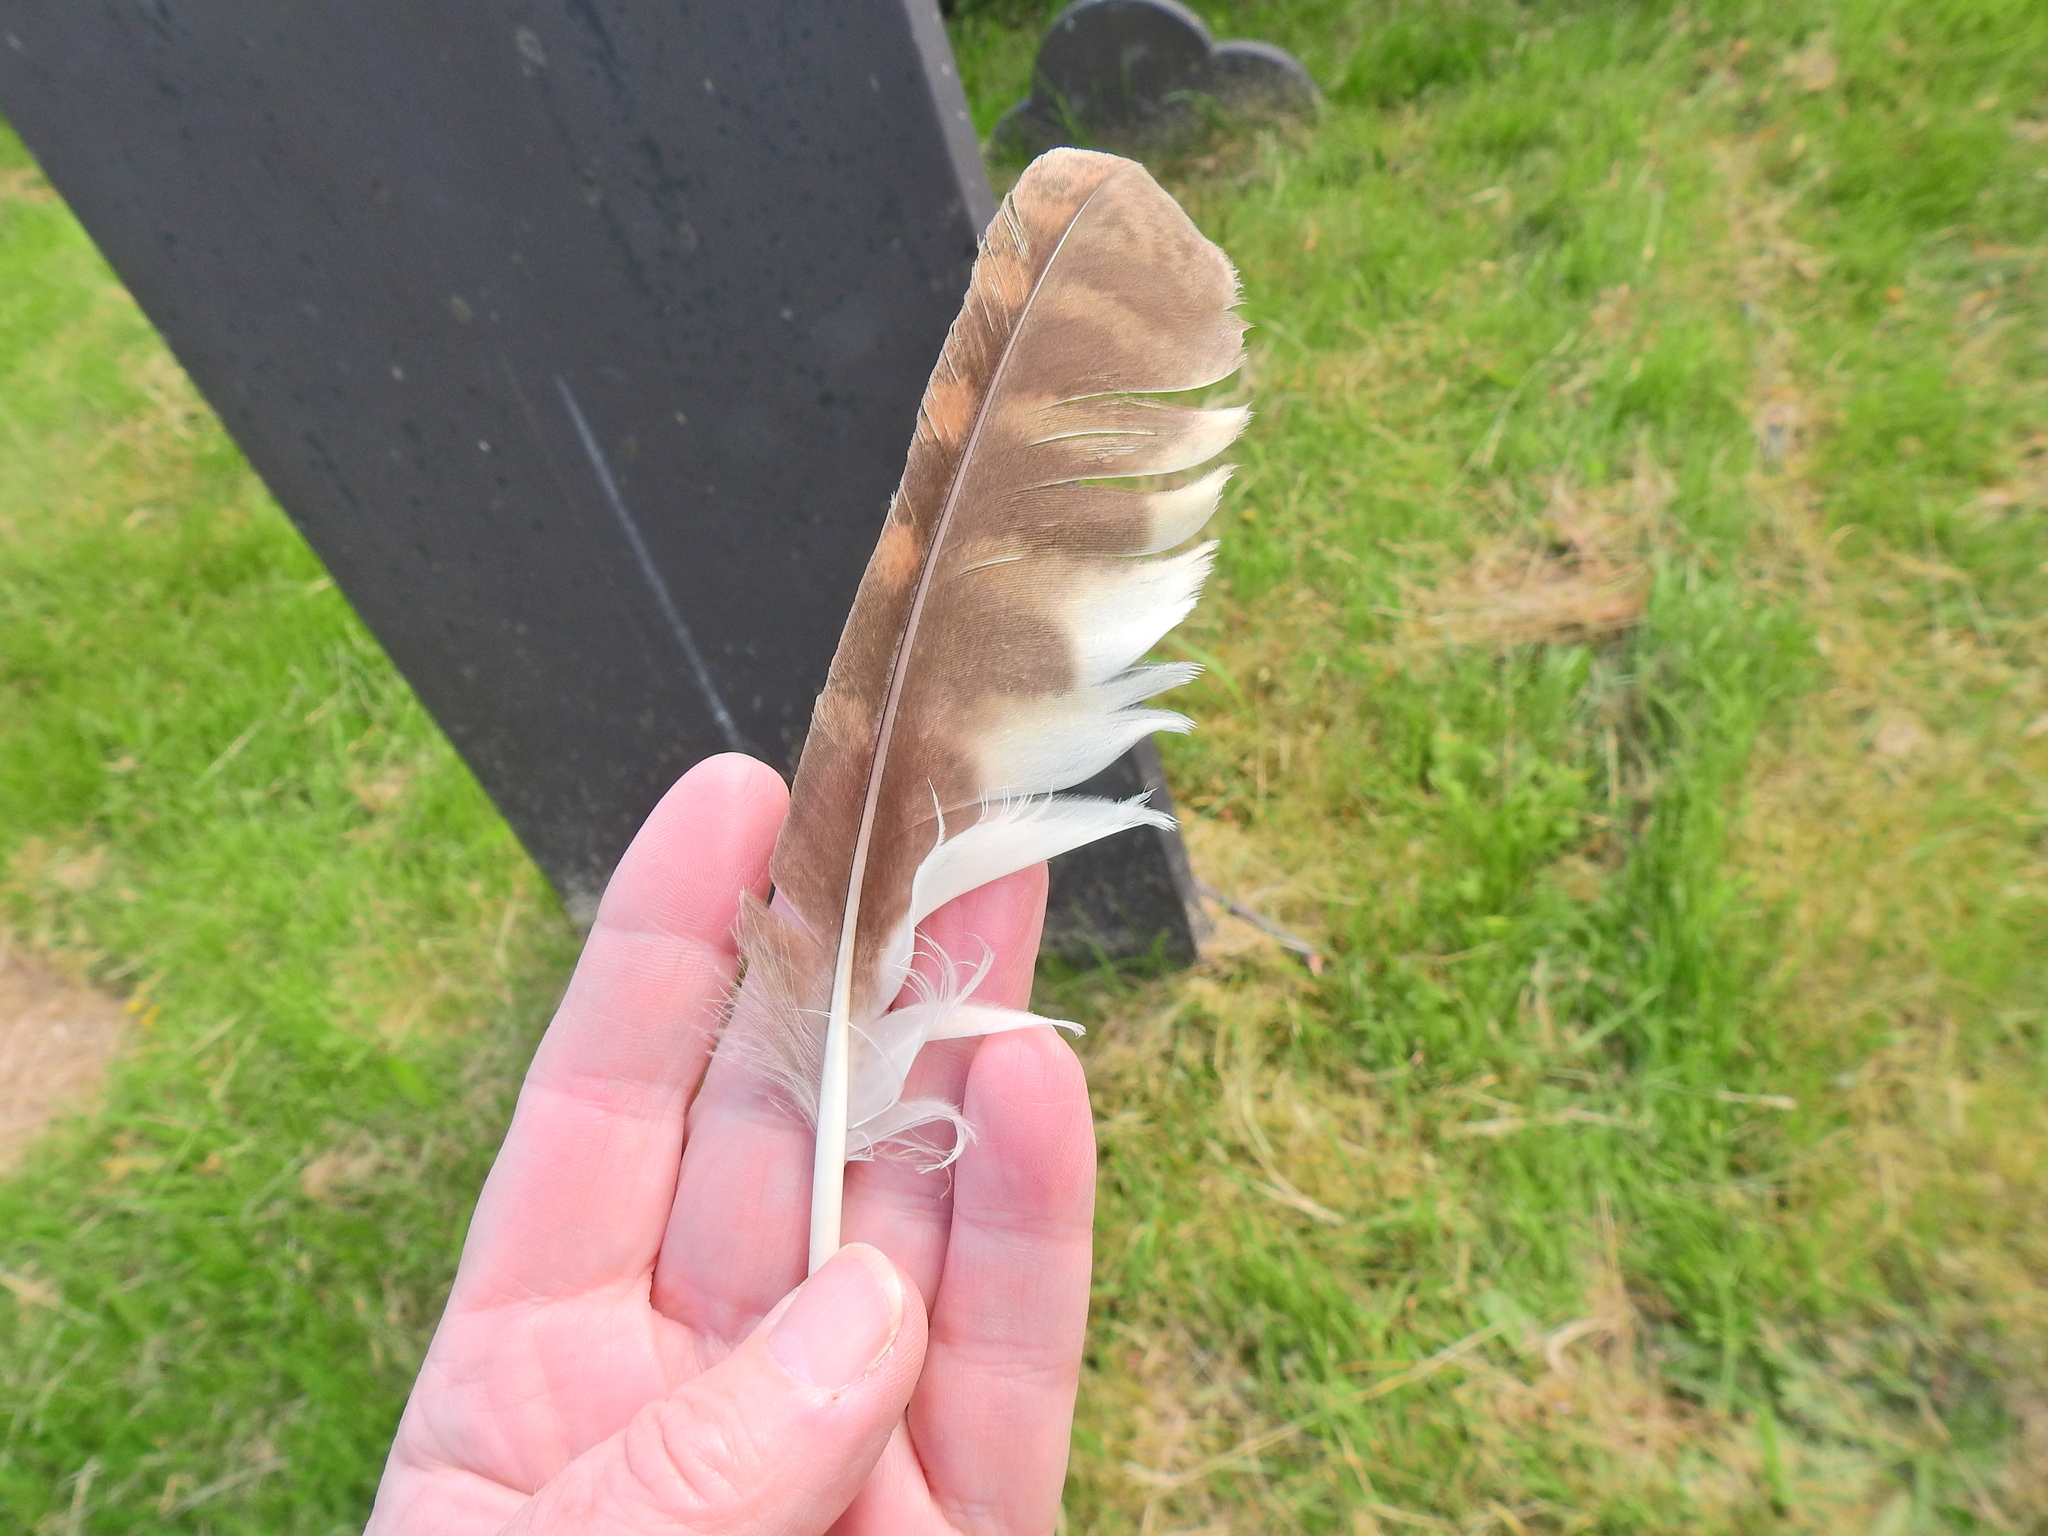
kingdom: Animalia
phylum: Chordata
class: Aves
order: Strigiformes
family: Strigidae
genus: Strix
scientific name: Strix aluco
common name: Tawny owl
